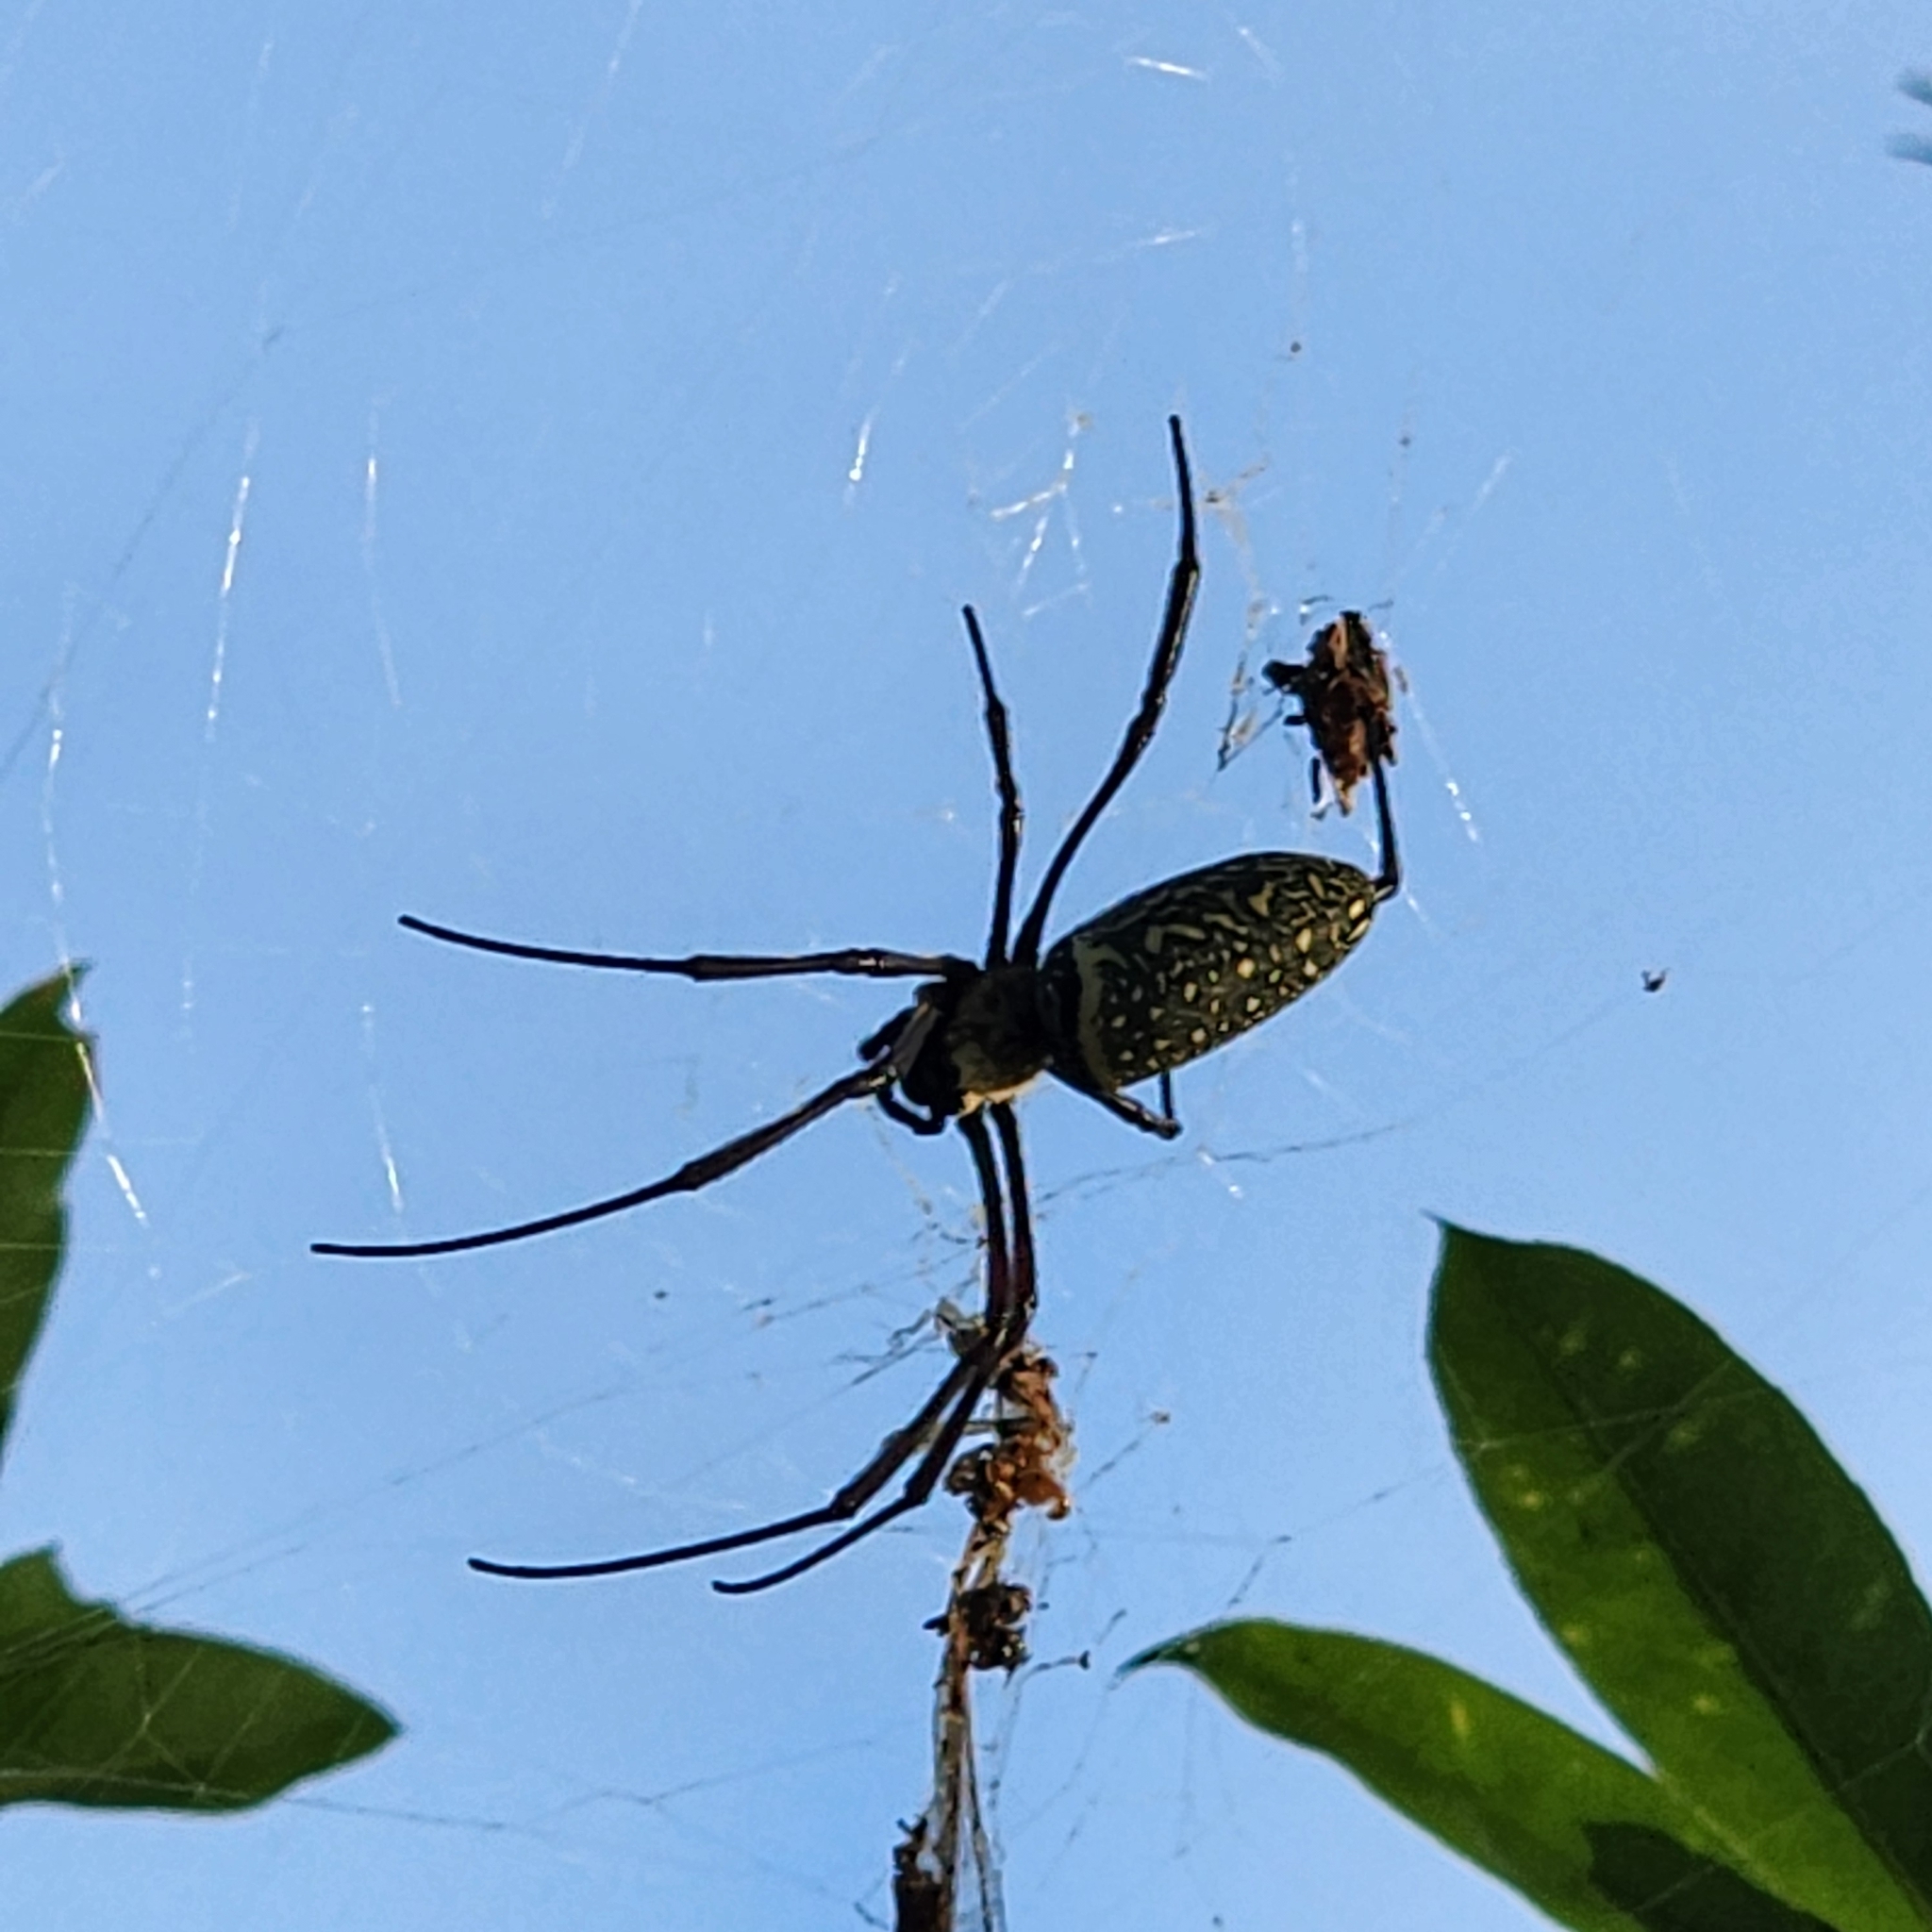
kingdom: Animalia
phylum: Arthropoda
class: Arachnida
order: Araneae
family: Araneidae
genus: Trichonephila
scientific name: Trichonephila antipodiana
